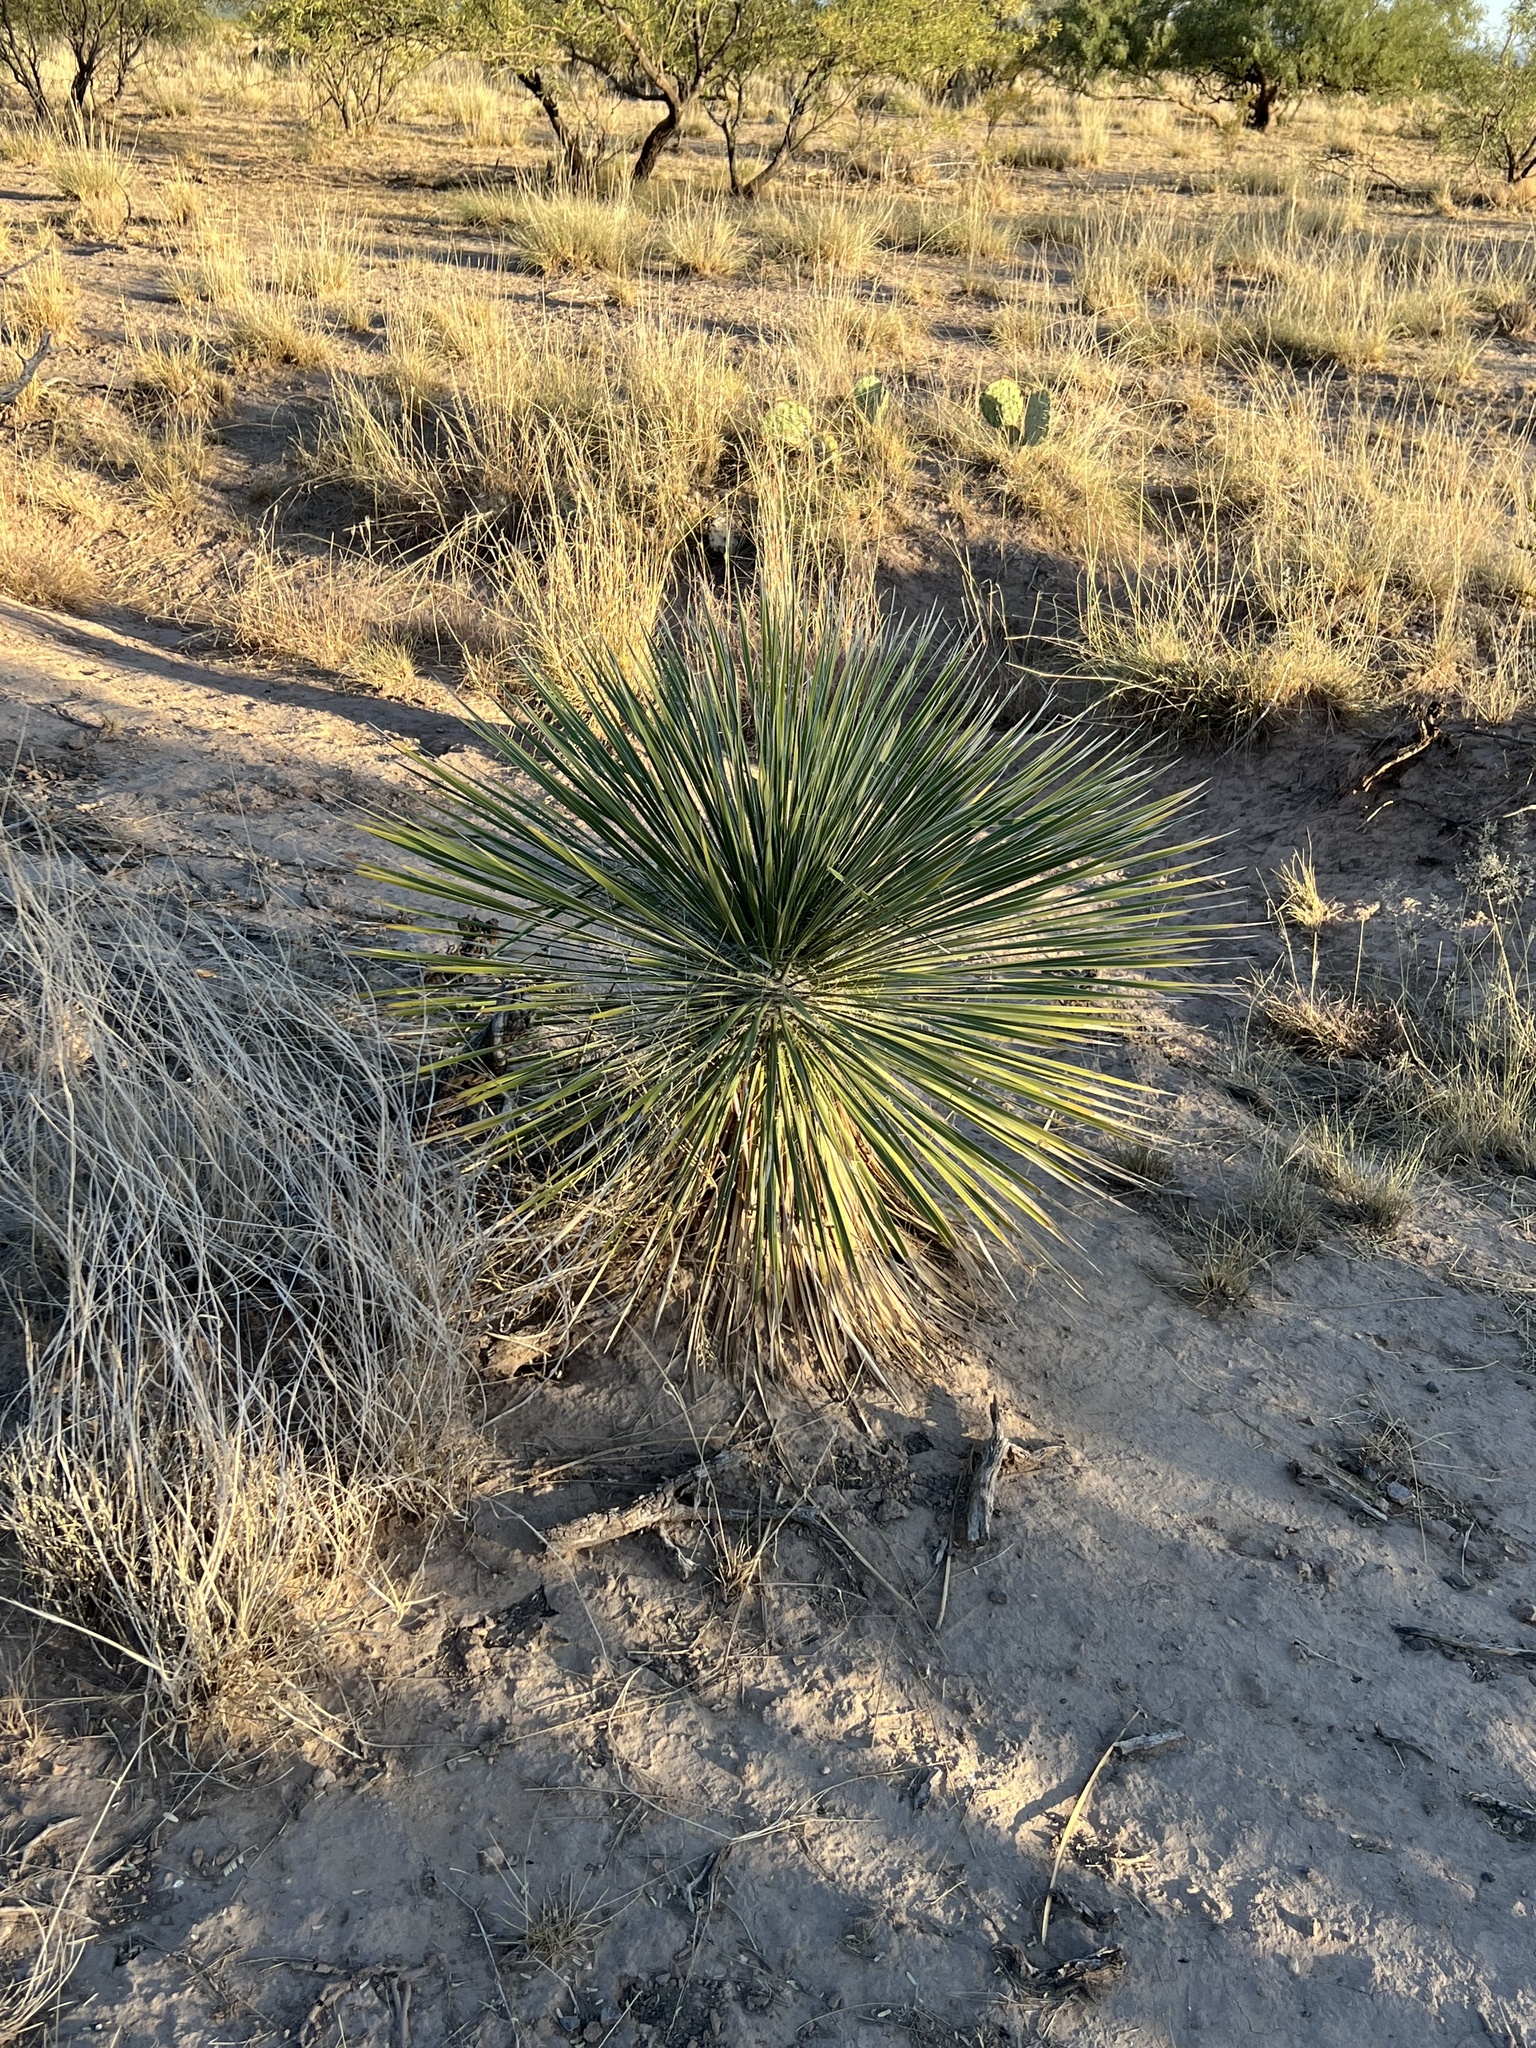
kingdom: Plantae
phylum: Tracheophyta
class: Liliopsida
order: Asparagales
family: Asparagaceae
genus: Yucca
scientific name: Yucca elata
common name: Palmella
